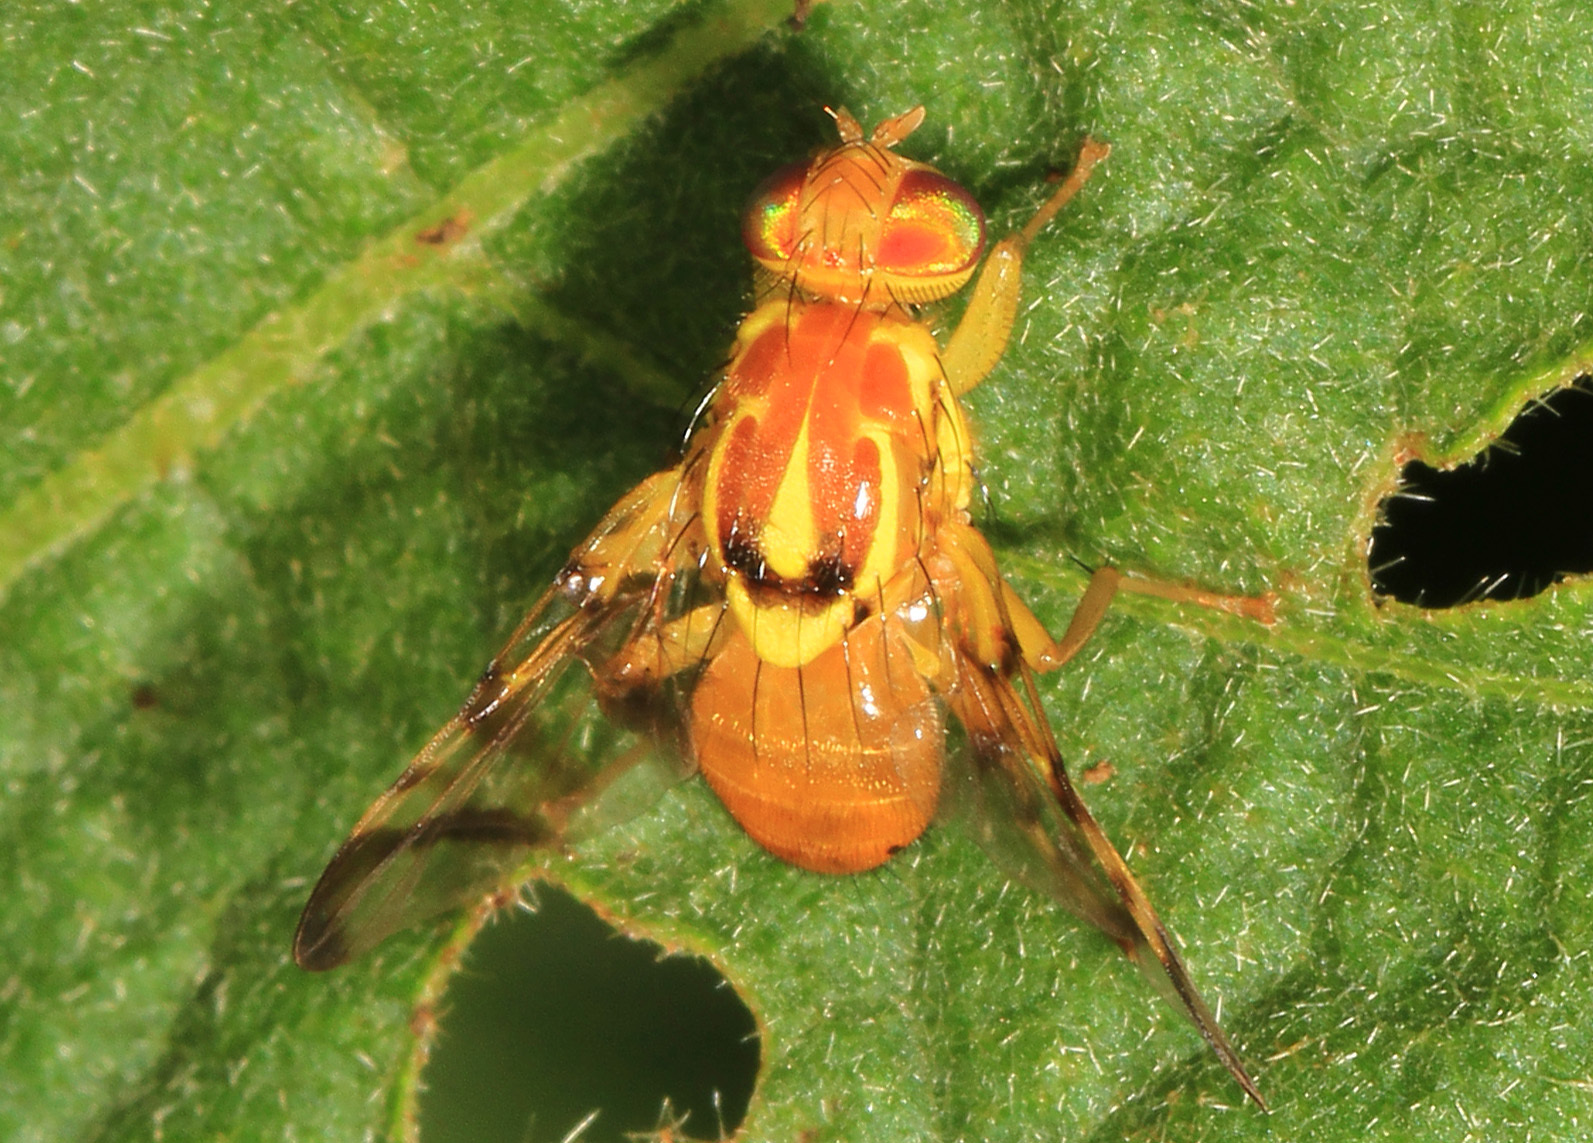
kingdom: Animalia
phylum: Arthropoda
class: Insecta
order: Diptera
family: Tephritidae
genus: Zonosemata
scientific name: Zonosemata electa
